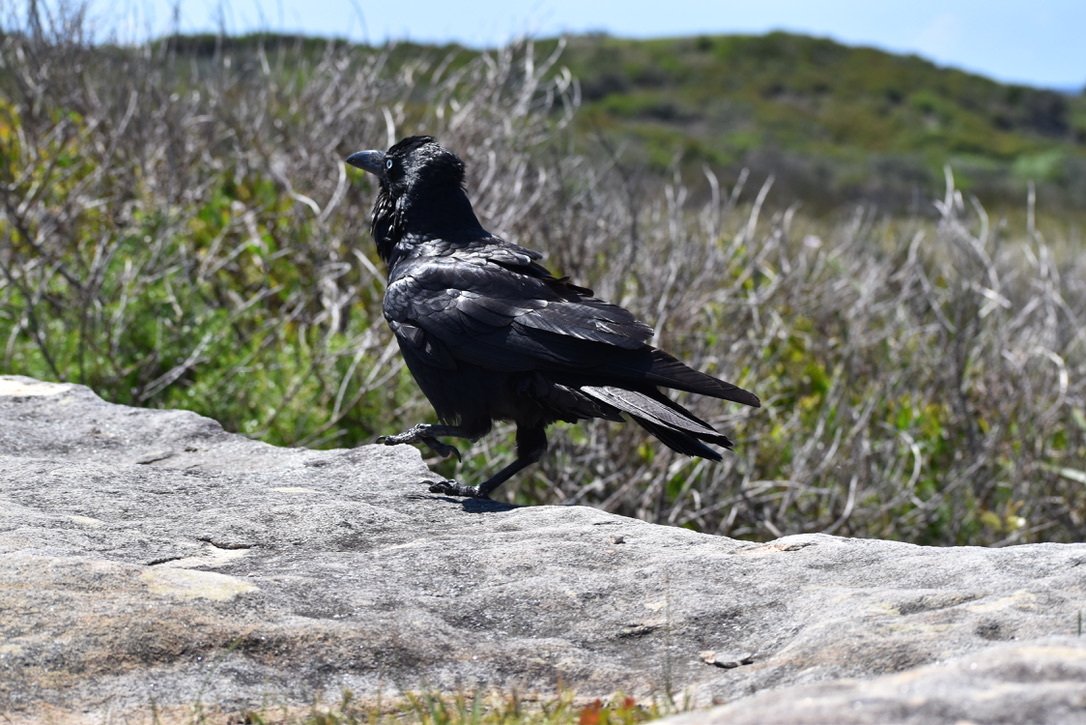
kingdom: Animalia
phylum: Chordata
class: Aves
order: Passeriformes
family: Corvidae
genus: Corvus
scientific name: Corvus coronoides
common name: Australian raven
